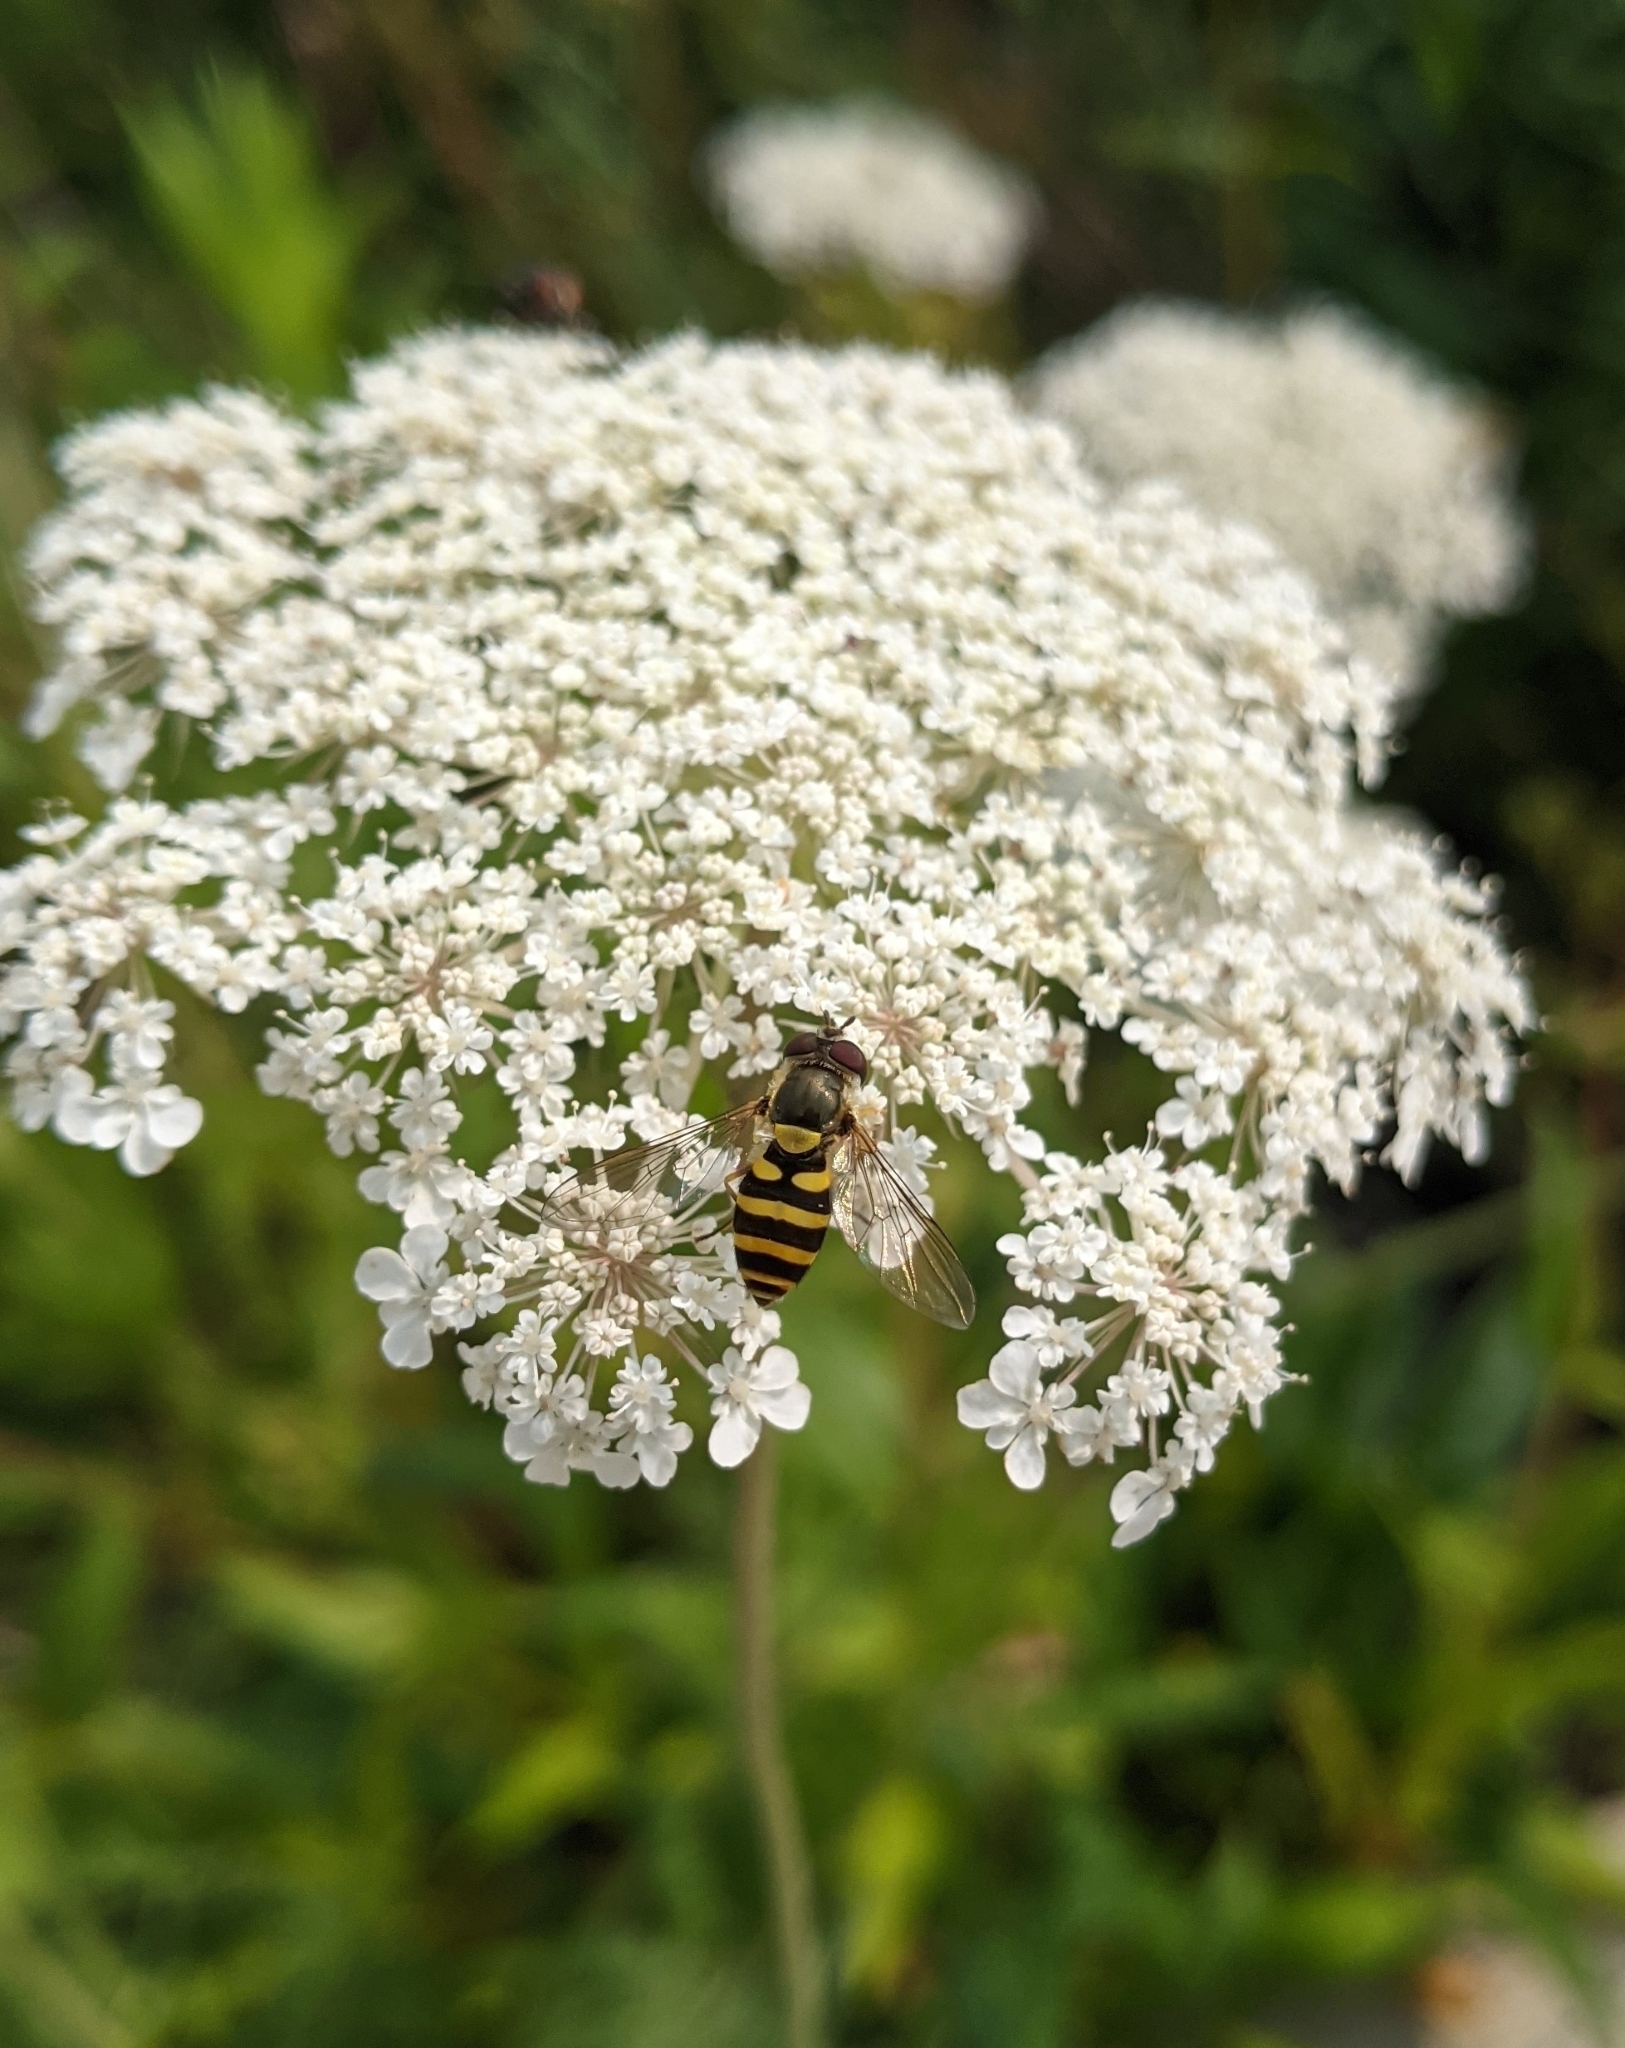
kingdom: Animalia
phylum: Arthropoda
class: Insecta
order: Diptera
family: Syrphidae
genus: Syrphus
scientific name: Syrphus
